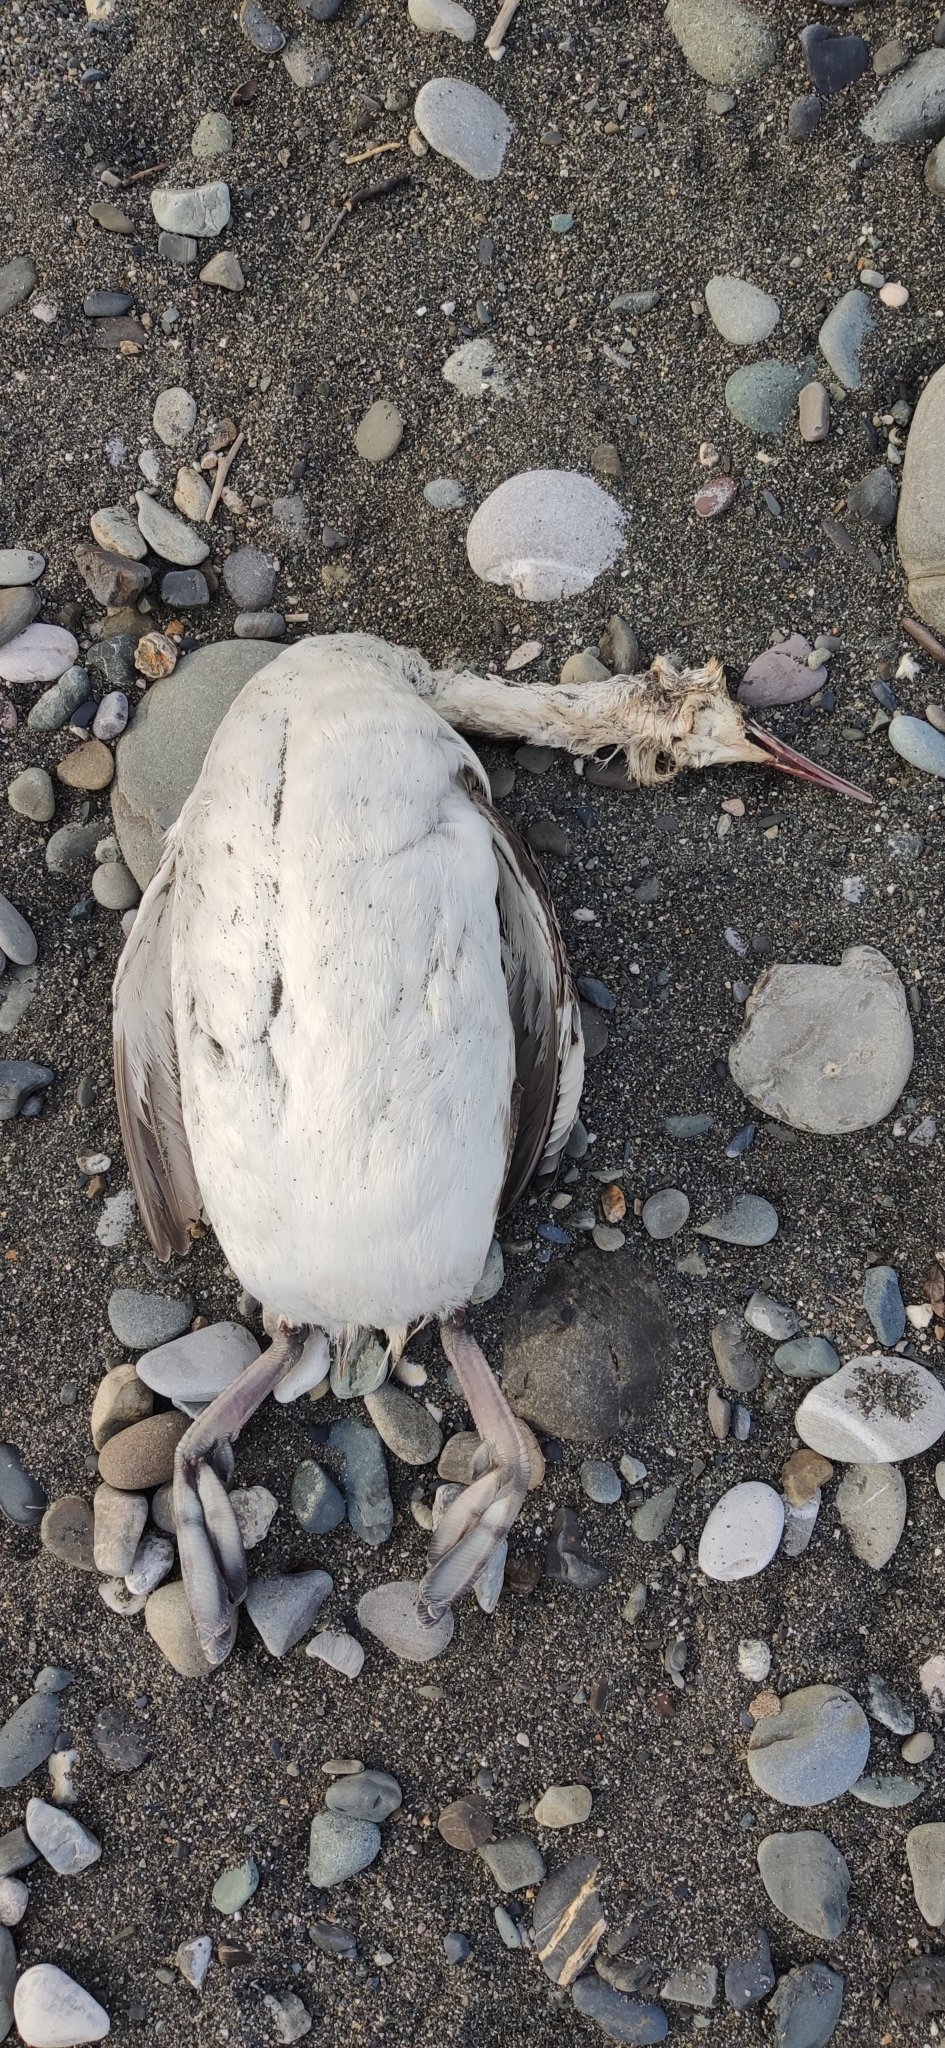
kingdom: Animalia
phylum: Chordata
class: Aves
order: Podicipediformes
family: Podicipedidae
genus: Podiceps
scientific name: Podiceps cristatus
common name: Great crested grebe
